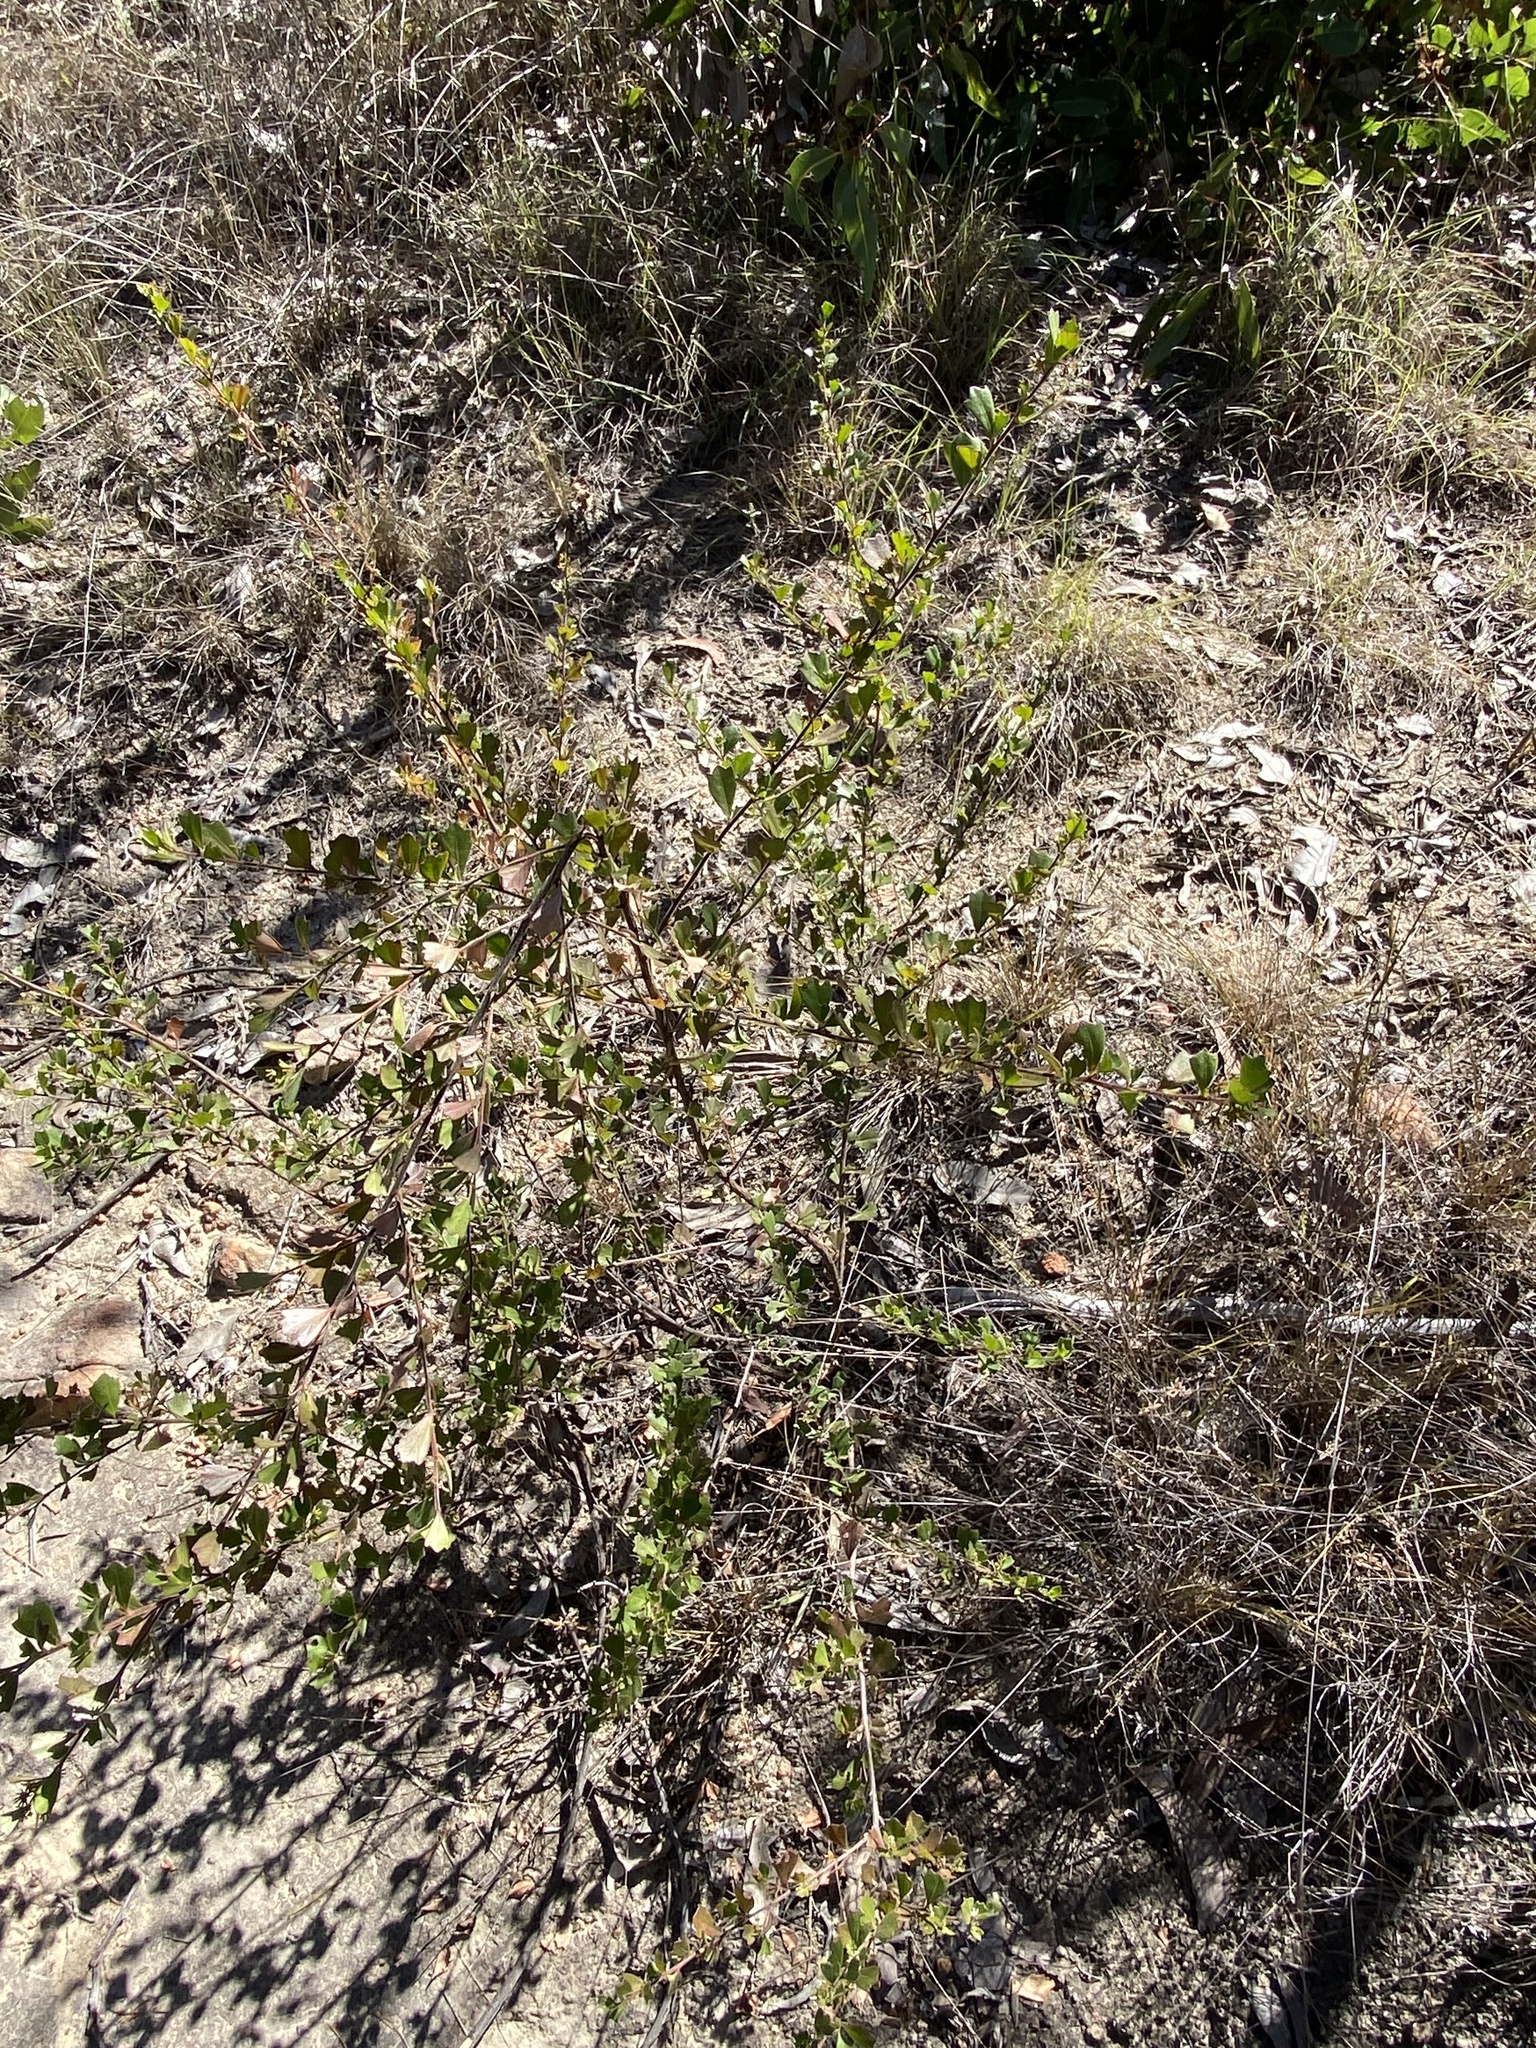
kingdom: Plantae
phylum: Tracheophyta
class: Magnoliopsida
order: Sapindales
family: Sapindaceae
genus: Dodonaea
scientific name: Dodonaea triangularis
